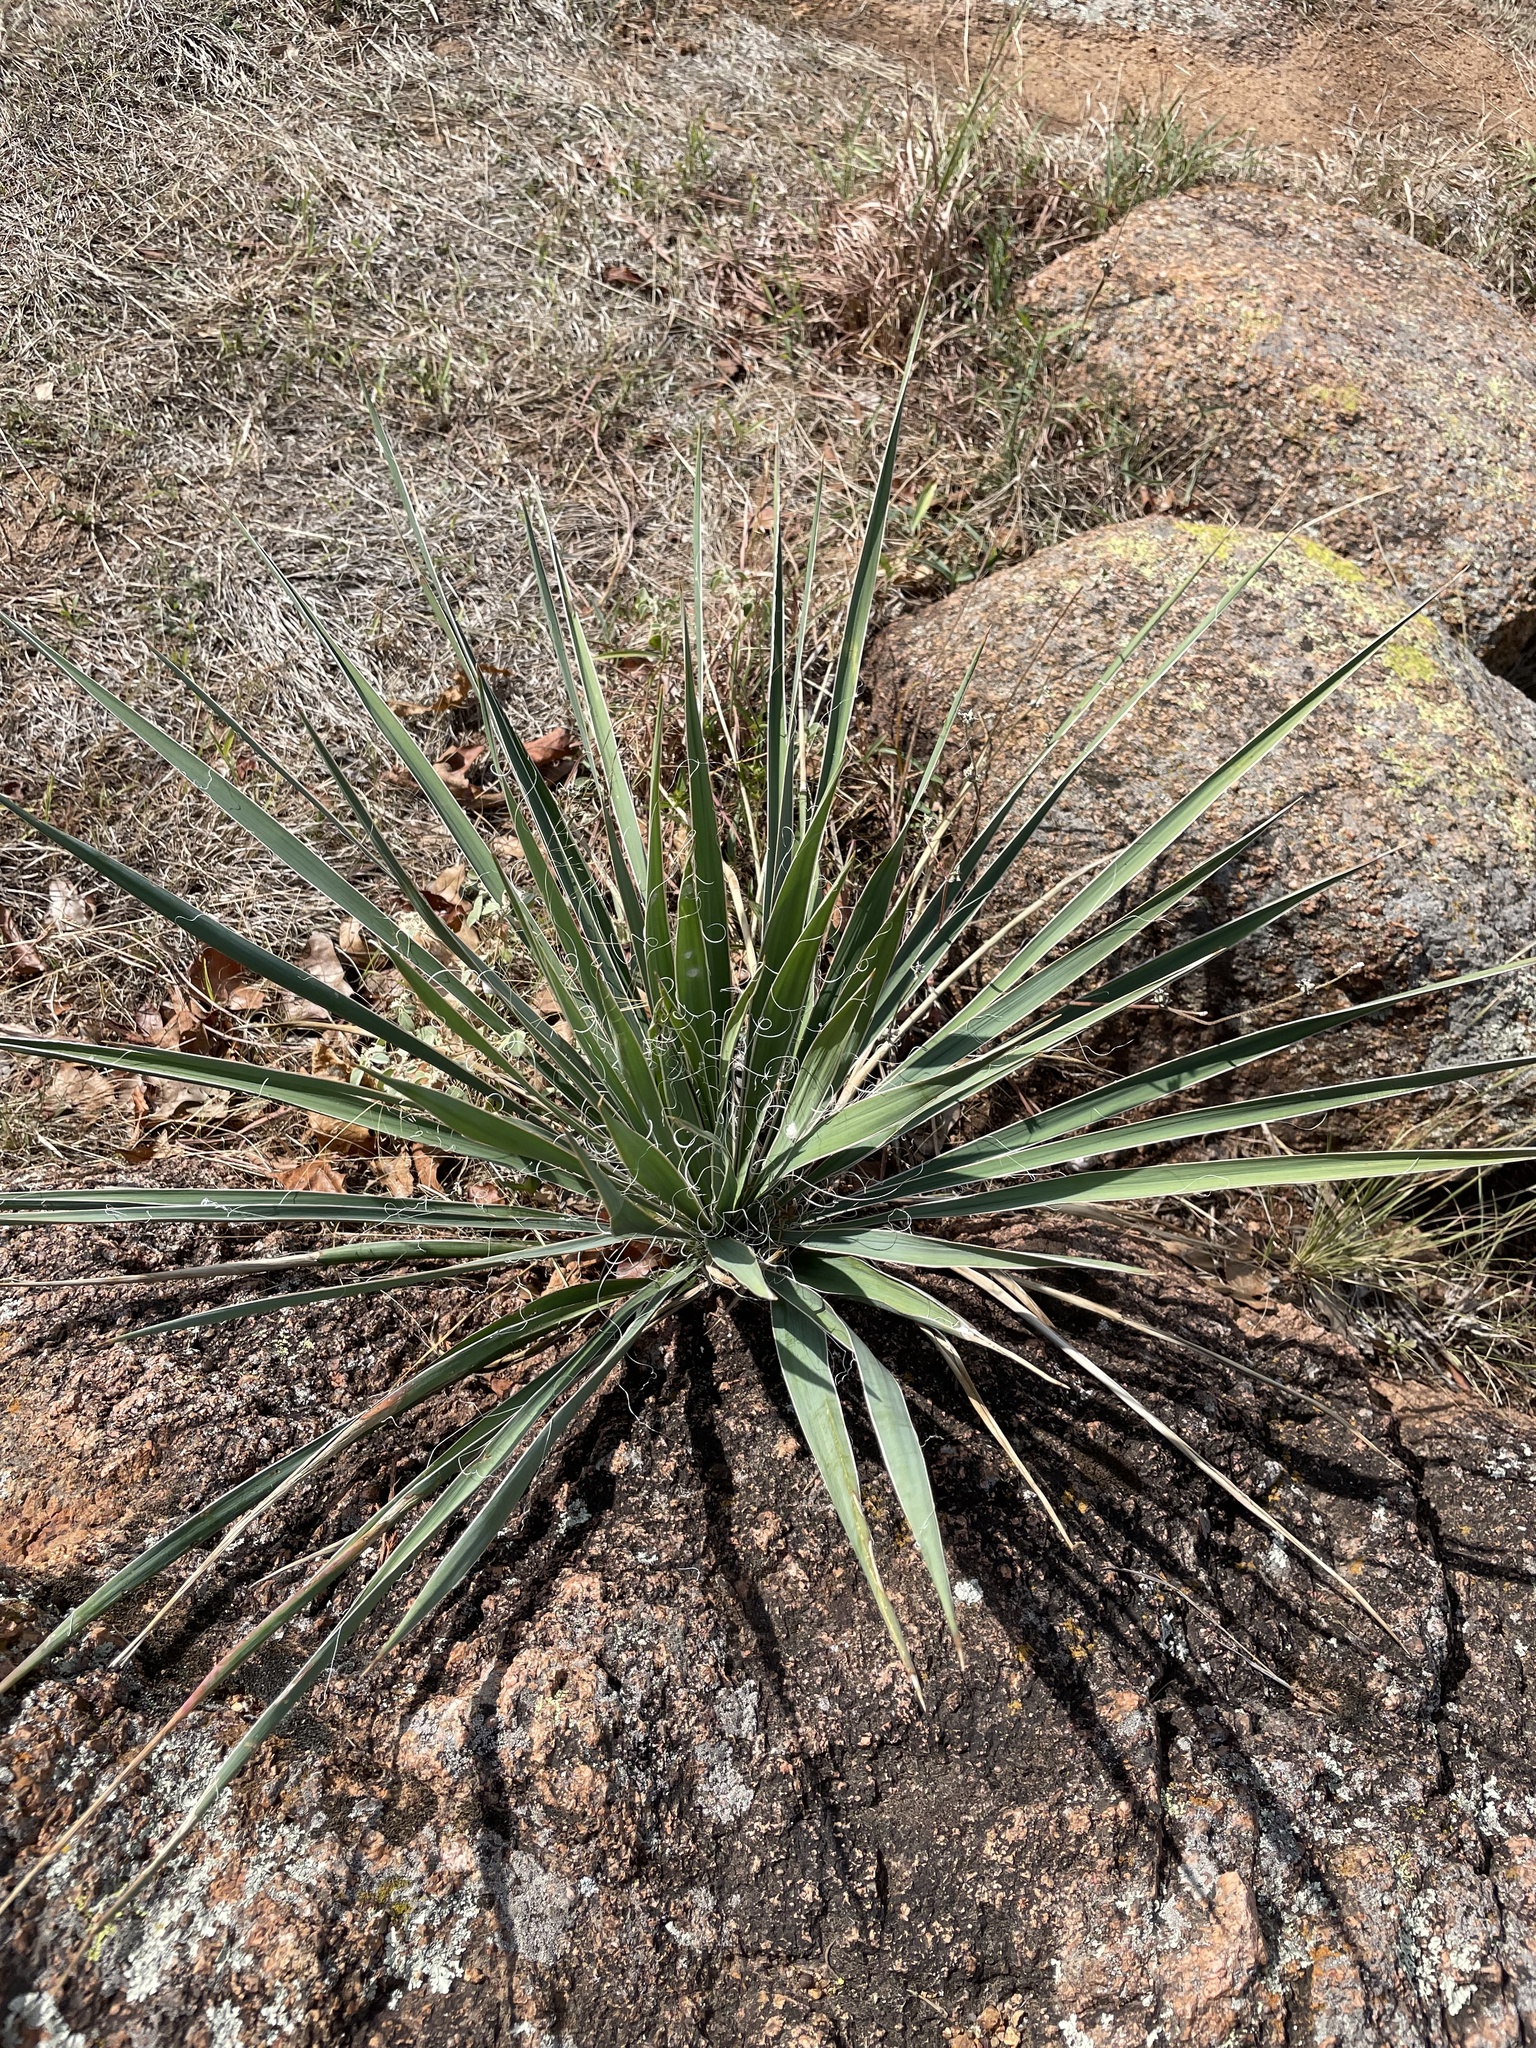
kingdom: Plantae
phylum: Tracheophyta
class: Liliopsida
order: Asparagales
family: Asparagaceae
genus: Yucca
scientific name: Yucca arkansana
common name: Arkansas yucca
